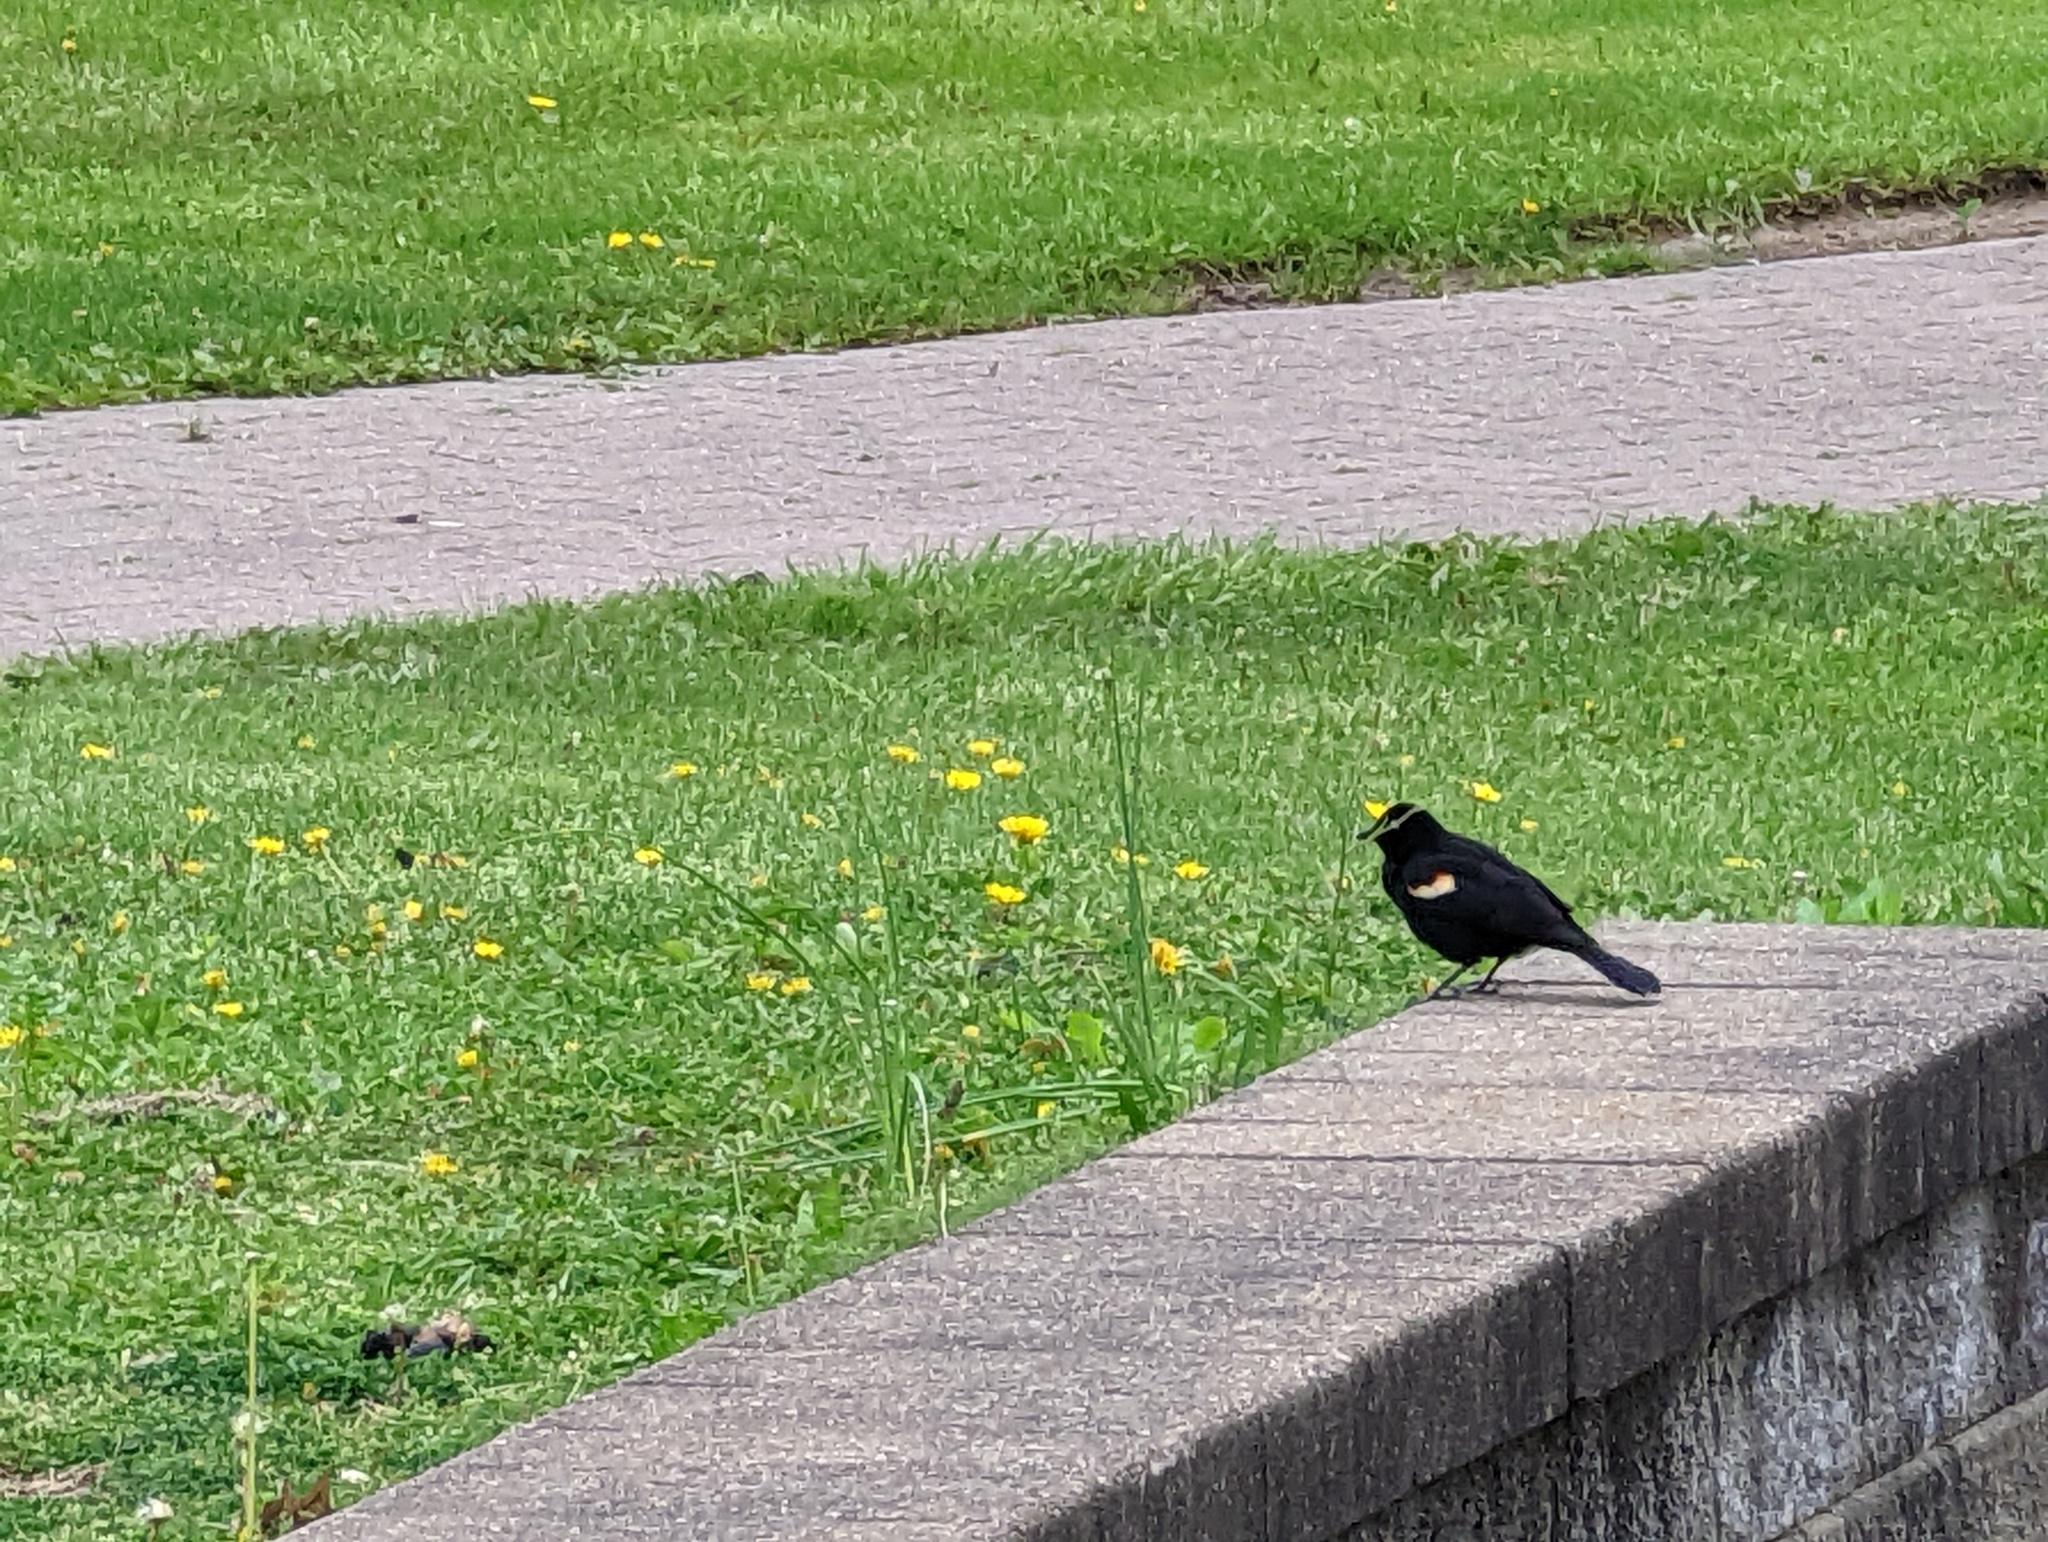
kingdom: Animalia
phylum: Chordata
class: Aves
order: Passeriformes
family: Icteridae
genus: Agelaius
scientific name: Agelaius phoeniceus
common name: Red-winged blackbird
